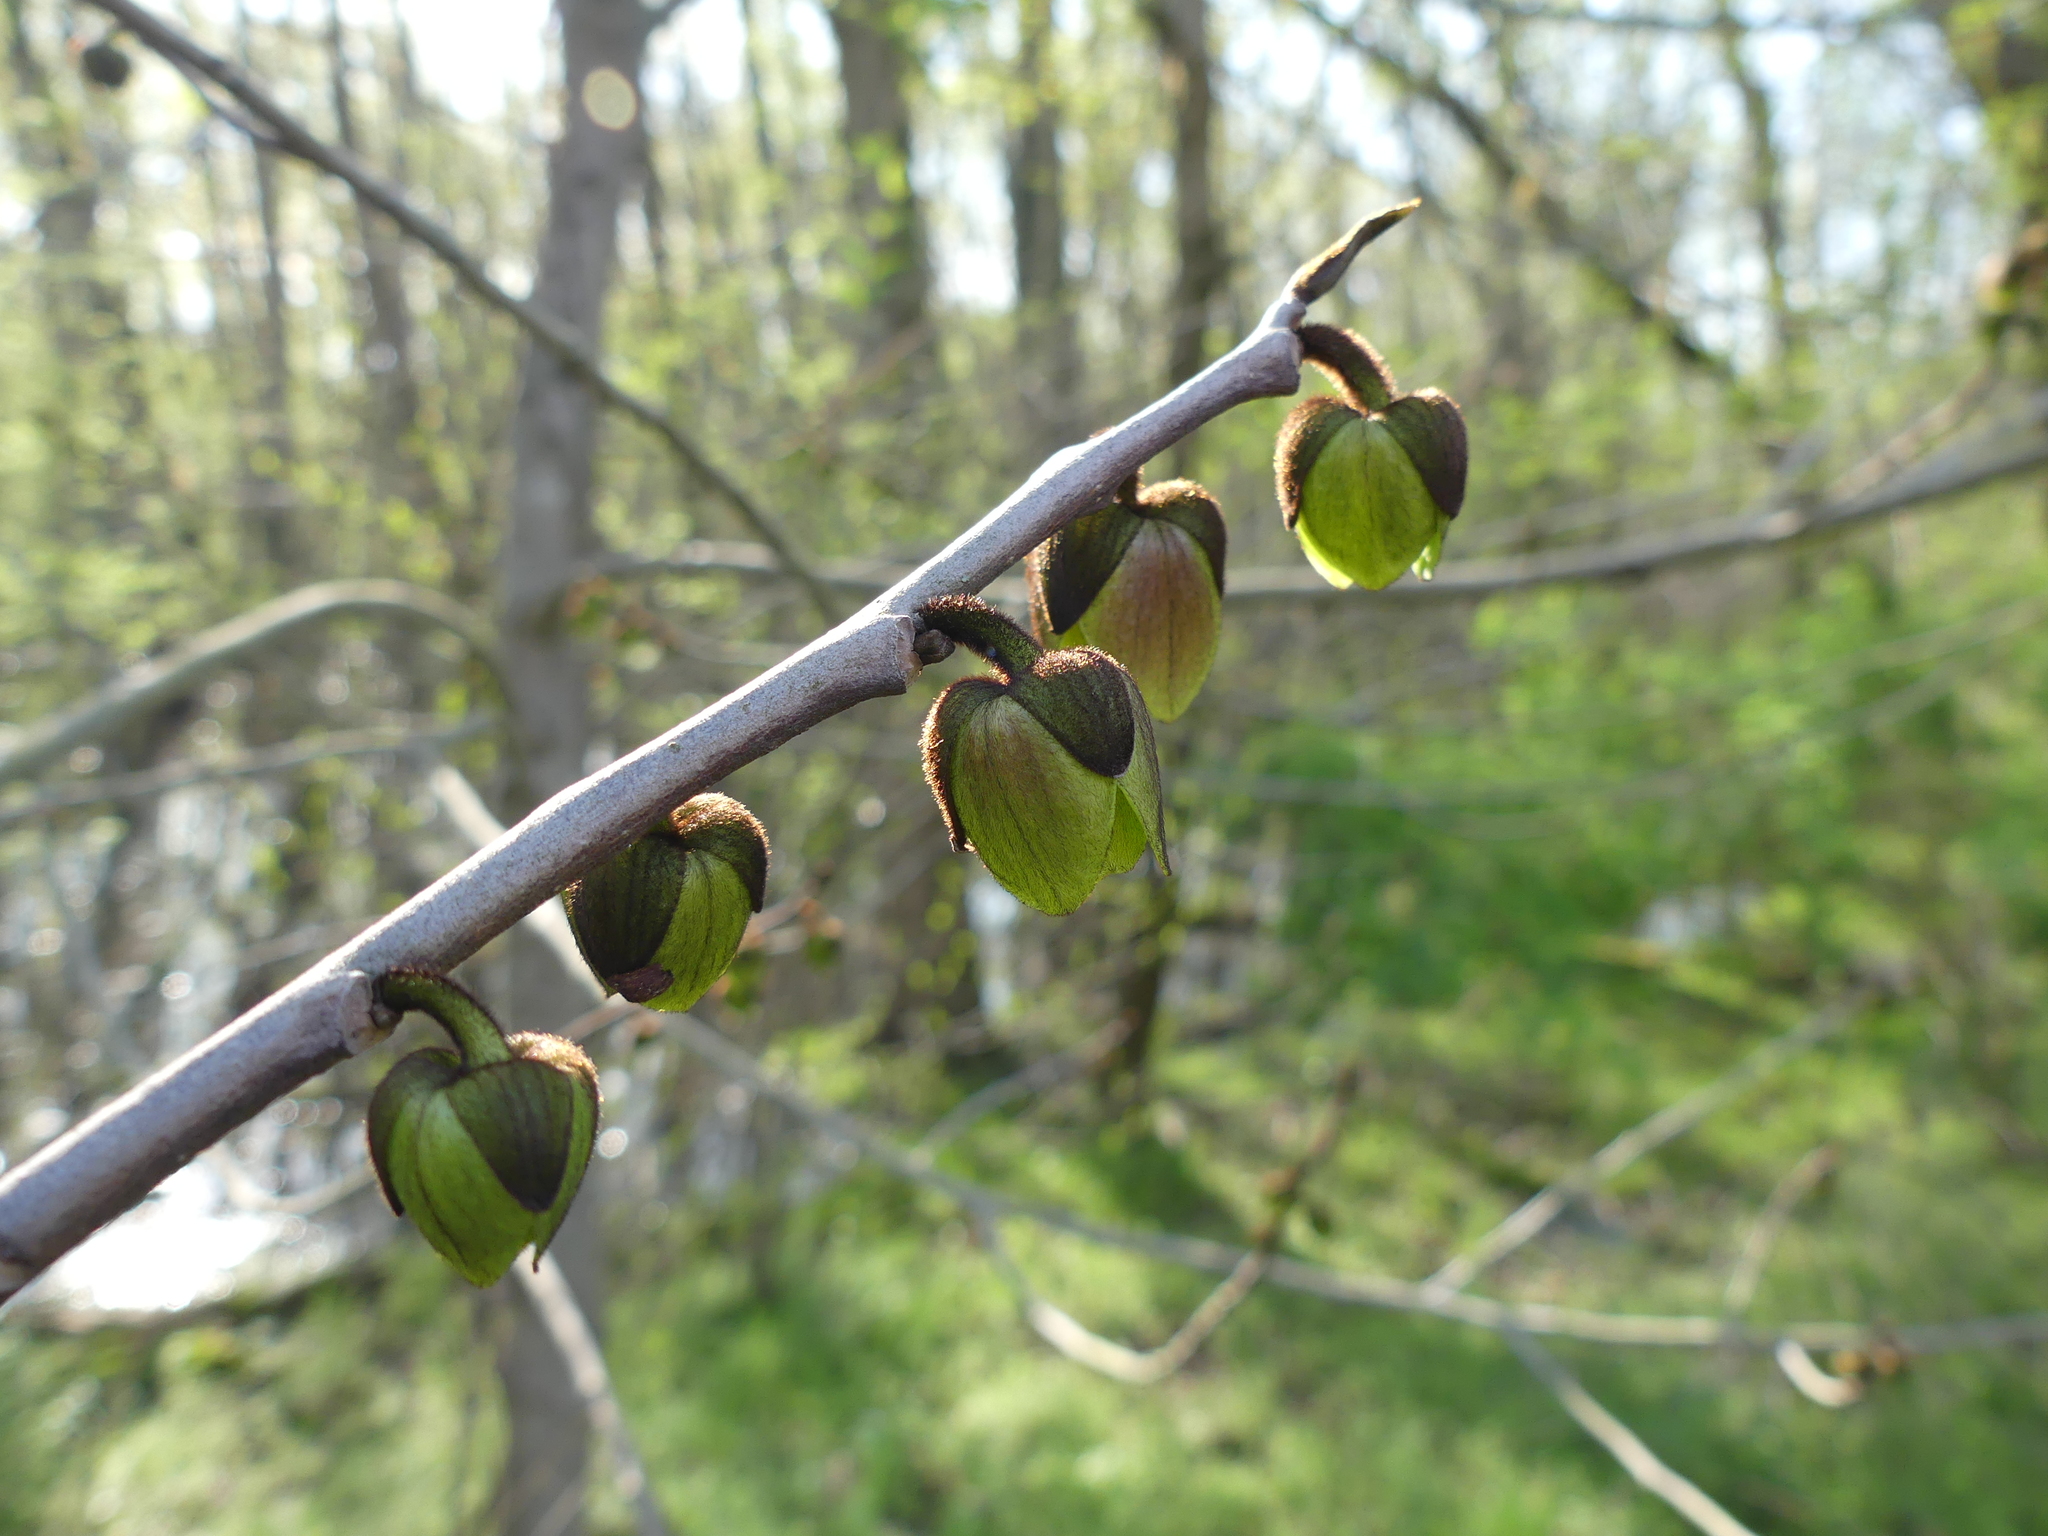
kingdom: Plantae
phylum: Tracheophyta
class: Magnoliopsida
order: Magnoliales
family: Annonaceae
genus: Asimina
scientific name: Asimina triloba
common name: Dog-banana
